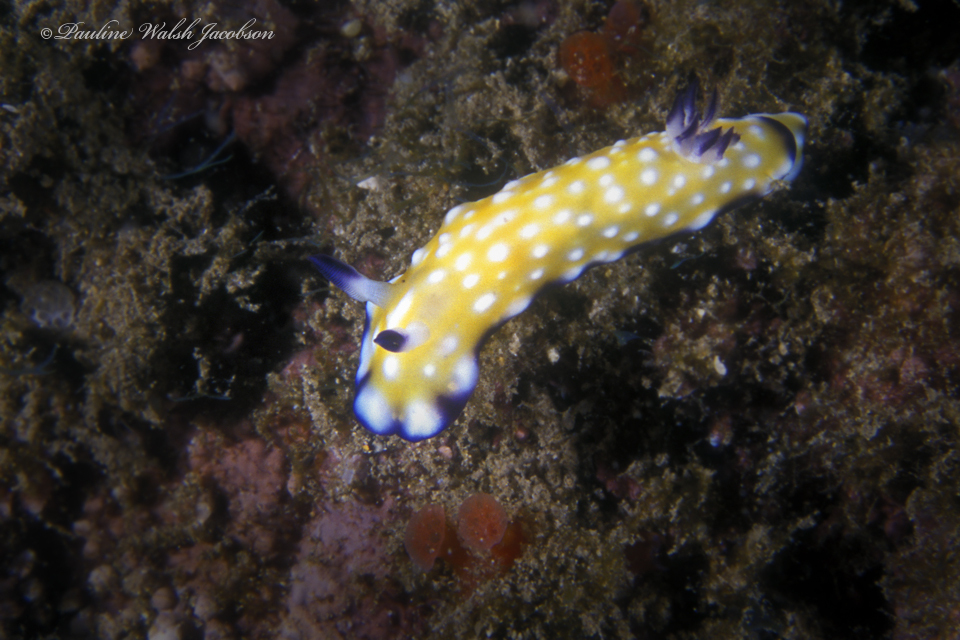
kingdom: Animalia
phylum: Mollusca
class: Gastropoda
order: Nudibranchia
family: Chromodorididae
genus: Goniobranchus
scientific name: Goniobranchus vibratus
